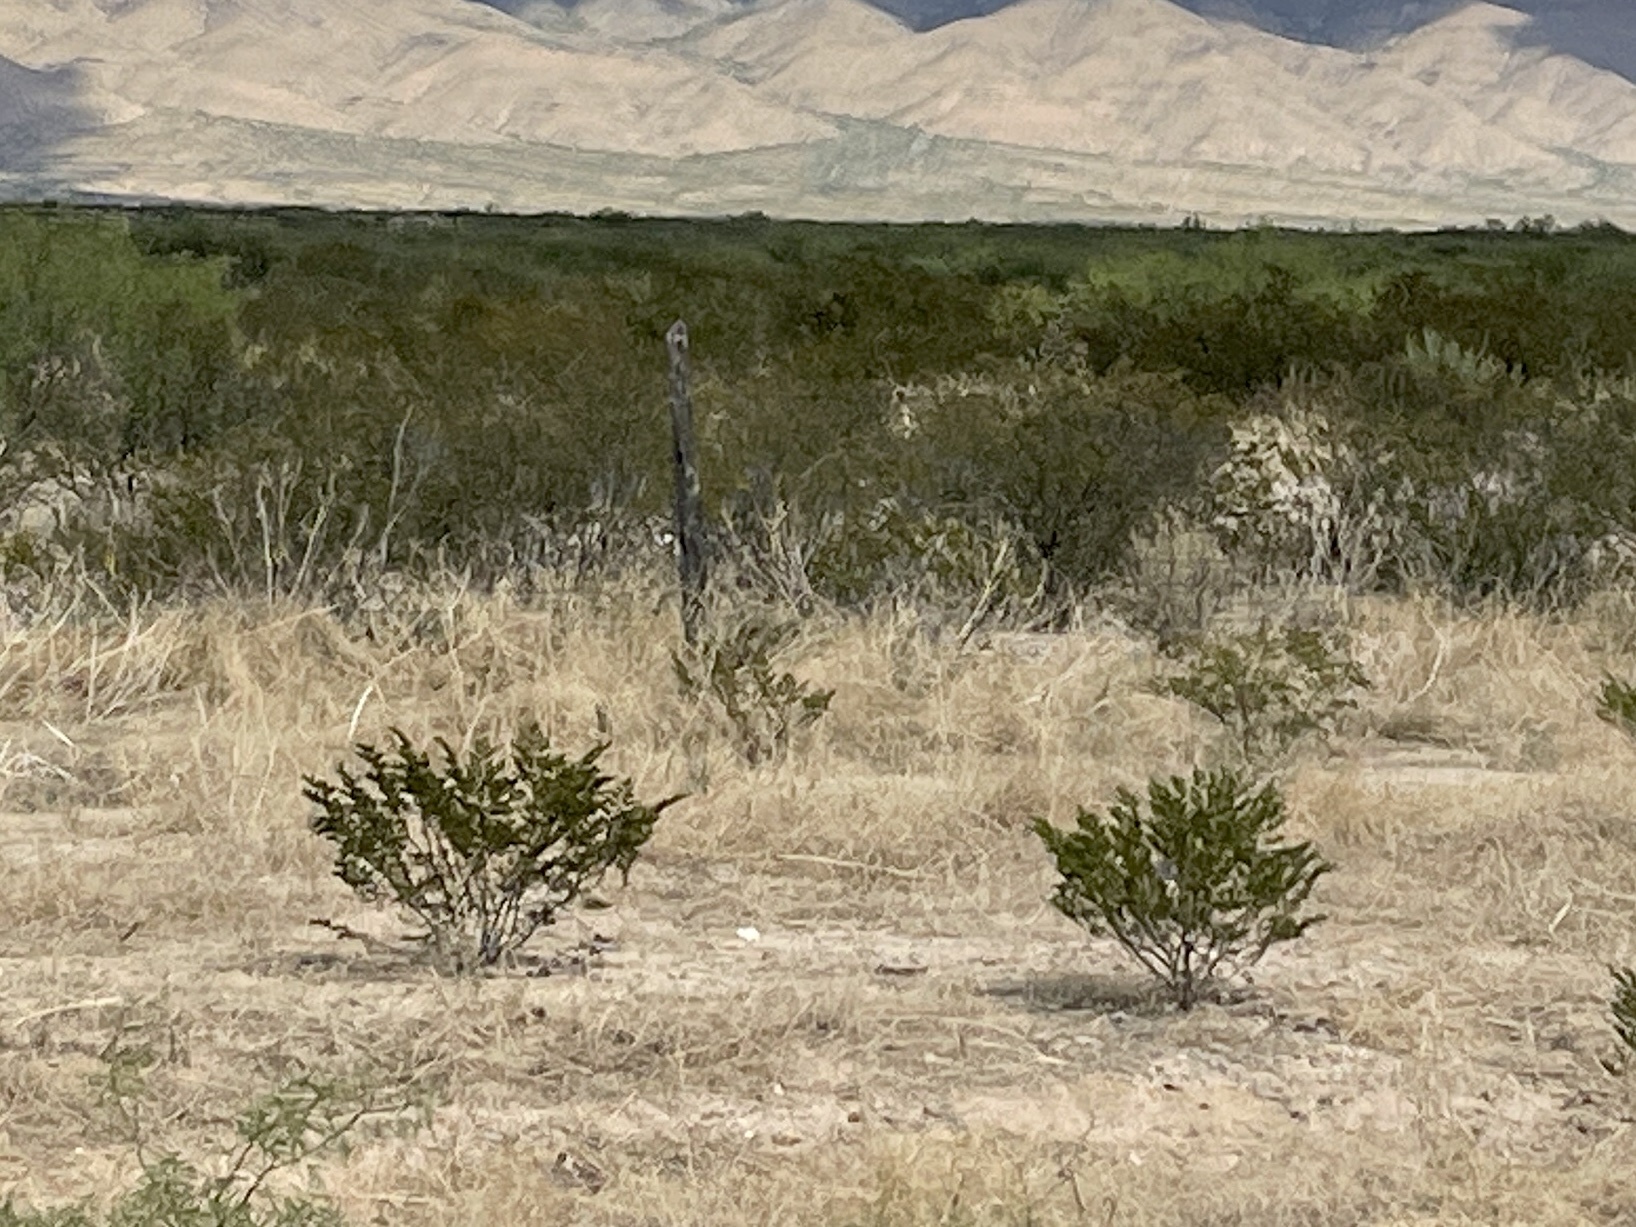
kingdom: Plantae
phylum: Tracheophyta
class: Magnoliopsida
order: Zygophyllales
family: Zygophyllaceae
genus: Larrea
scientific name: Larrea tridentata
